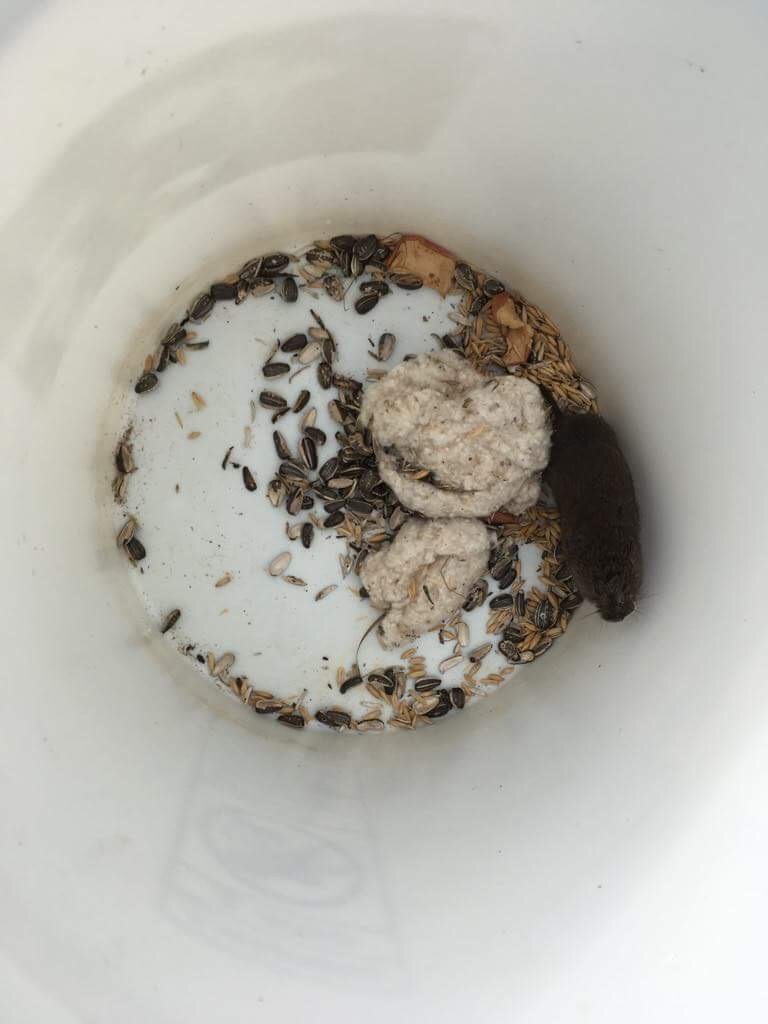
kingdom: Animalia
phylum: Chordata
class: Mammalia
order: Rodentia
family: Cricetidae
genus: Microtus
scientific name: Microtus townsendii
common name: Townsend's vole
